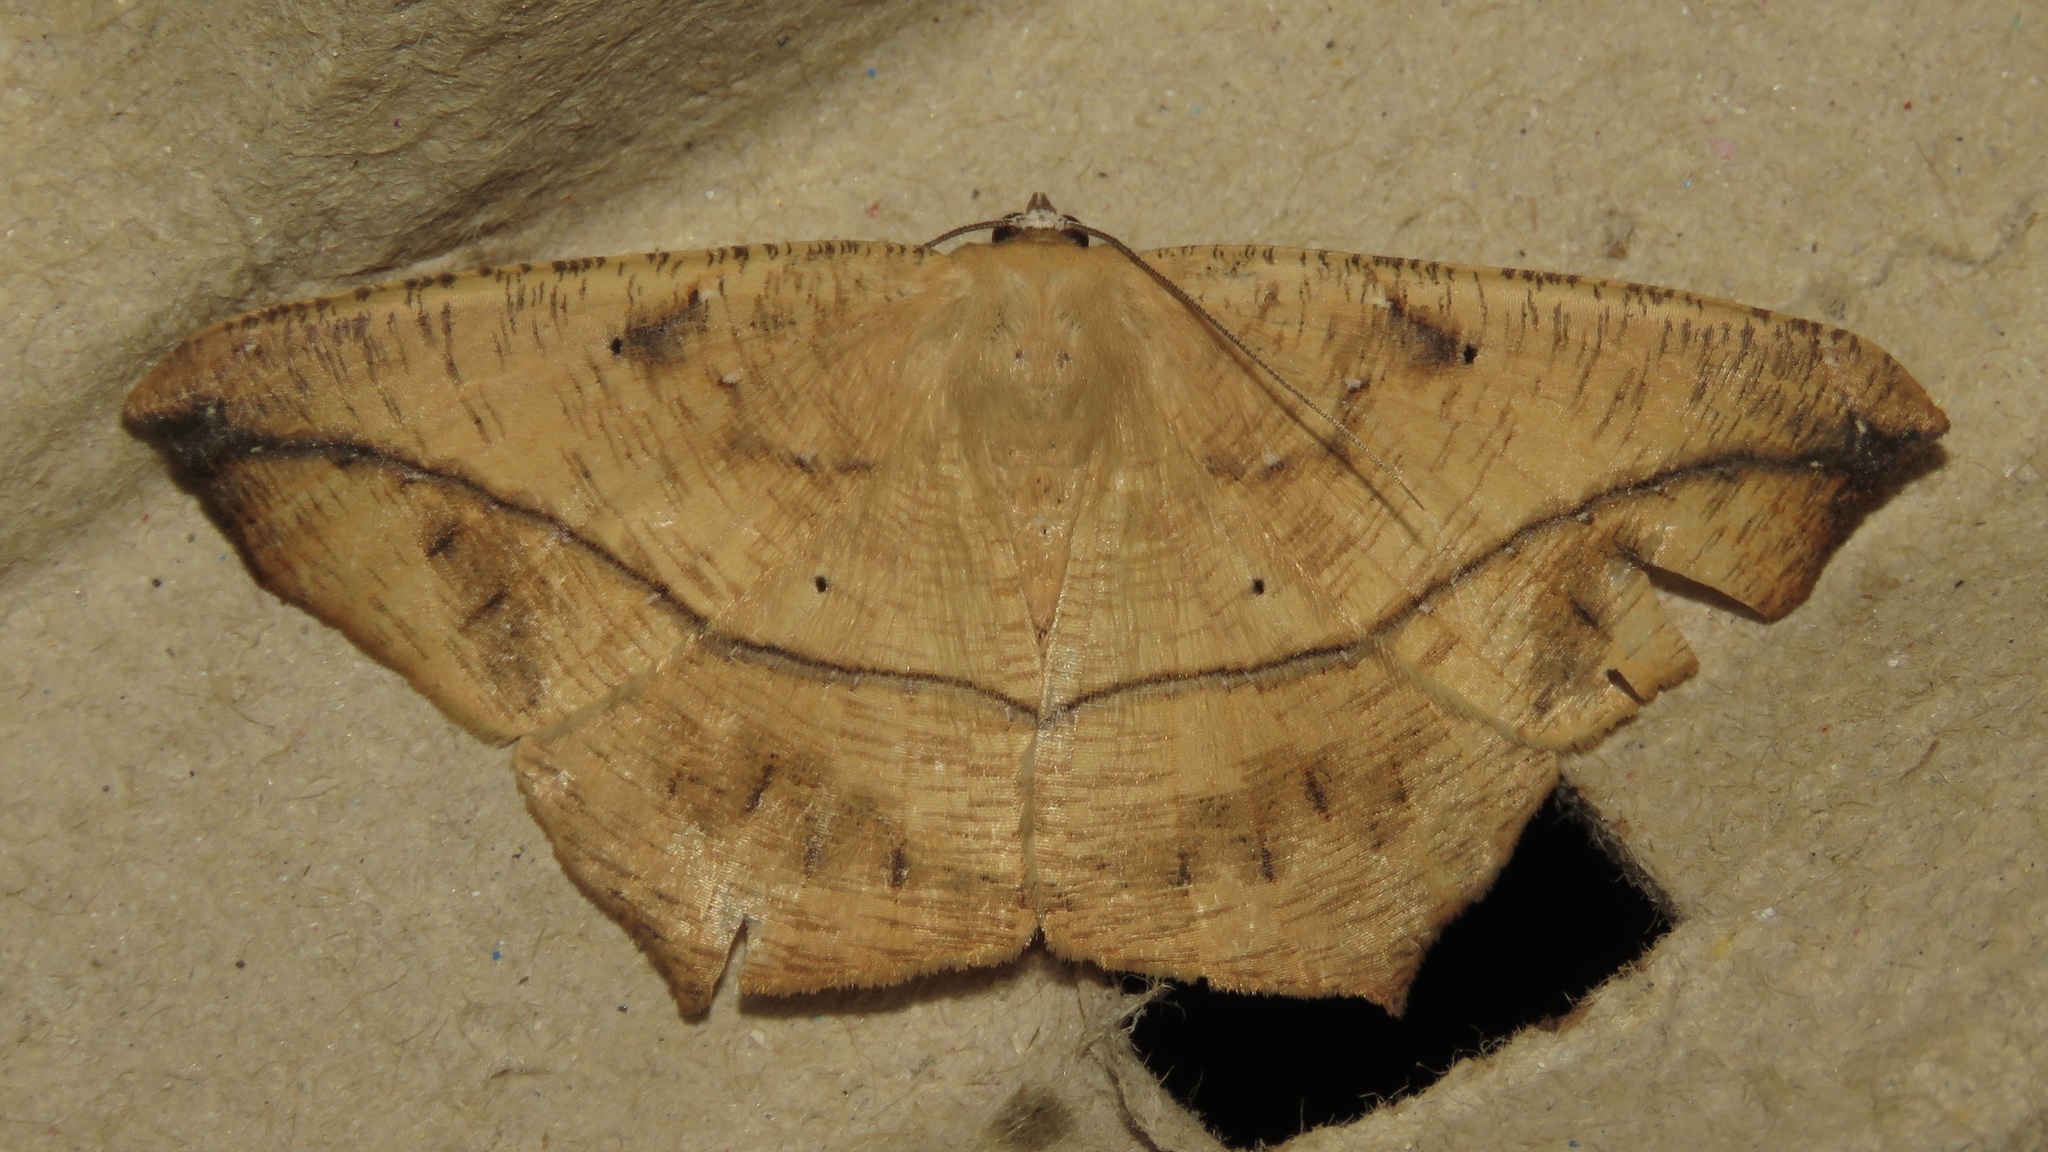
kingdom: Animalia
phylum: Arthropoda
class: Insecta
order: Lepidoptera
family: Geometridae
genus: Prochoerodes
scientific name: Prochoerodes lineola
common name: Large maple spanworm
